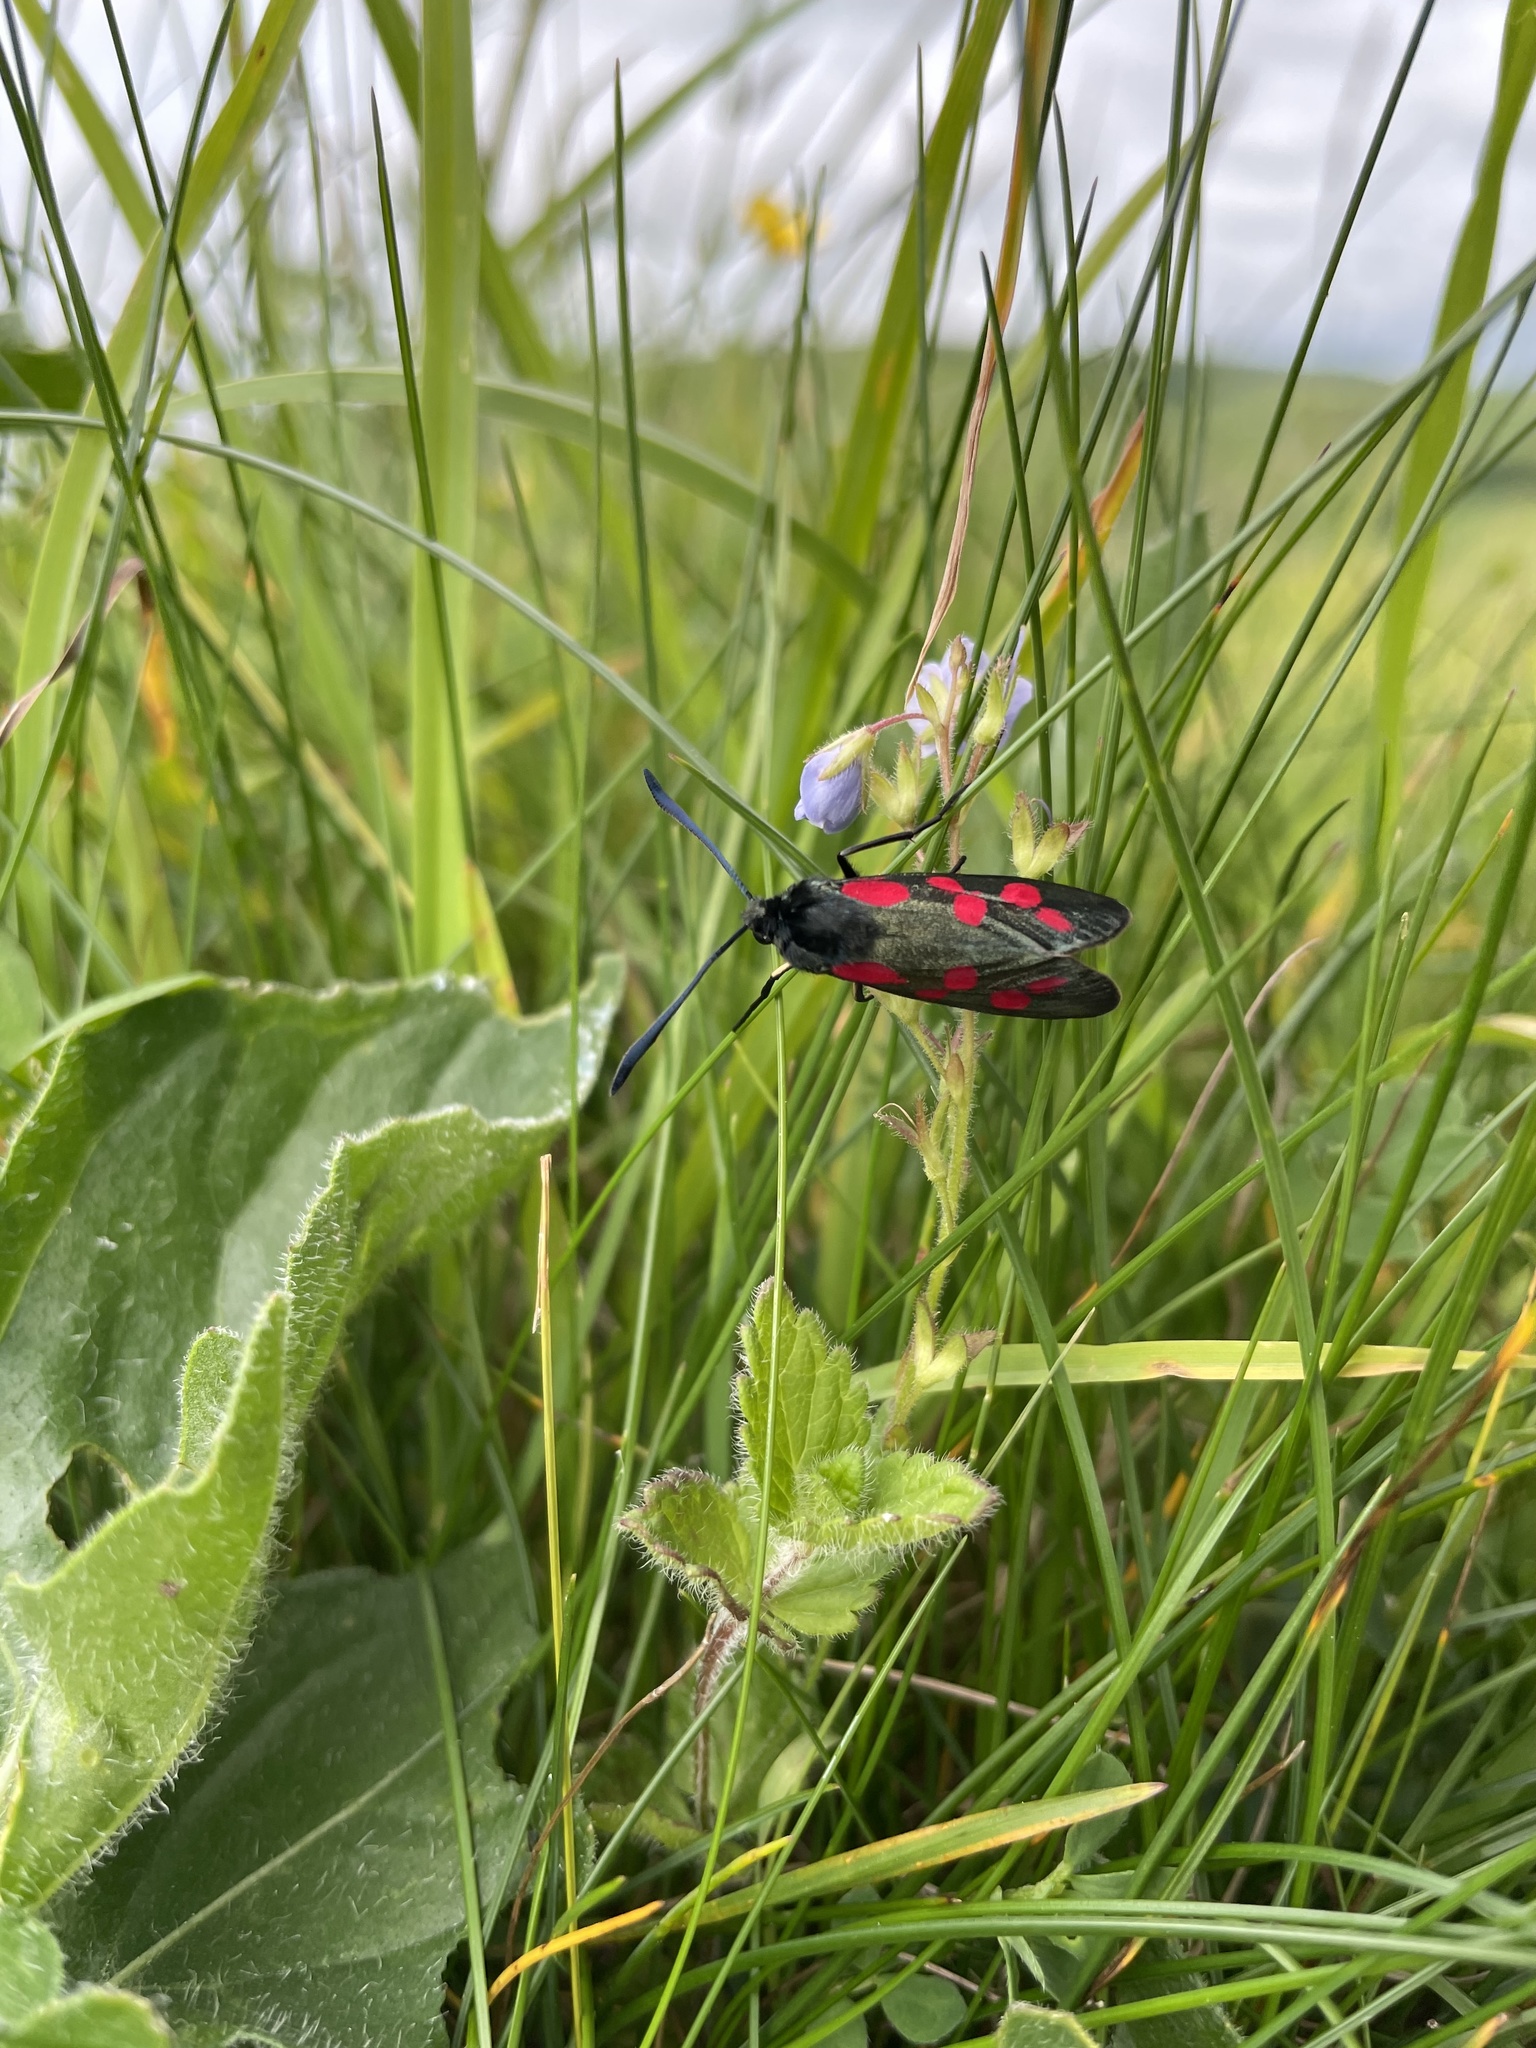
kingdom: Animalia
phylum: Arthropoda
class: Insecta
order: Lepidoptera
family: Zygaenidae
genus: Zygaena
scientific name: Zygaena filipendulae
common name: Six-spot burnet
